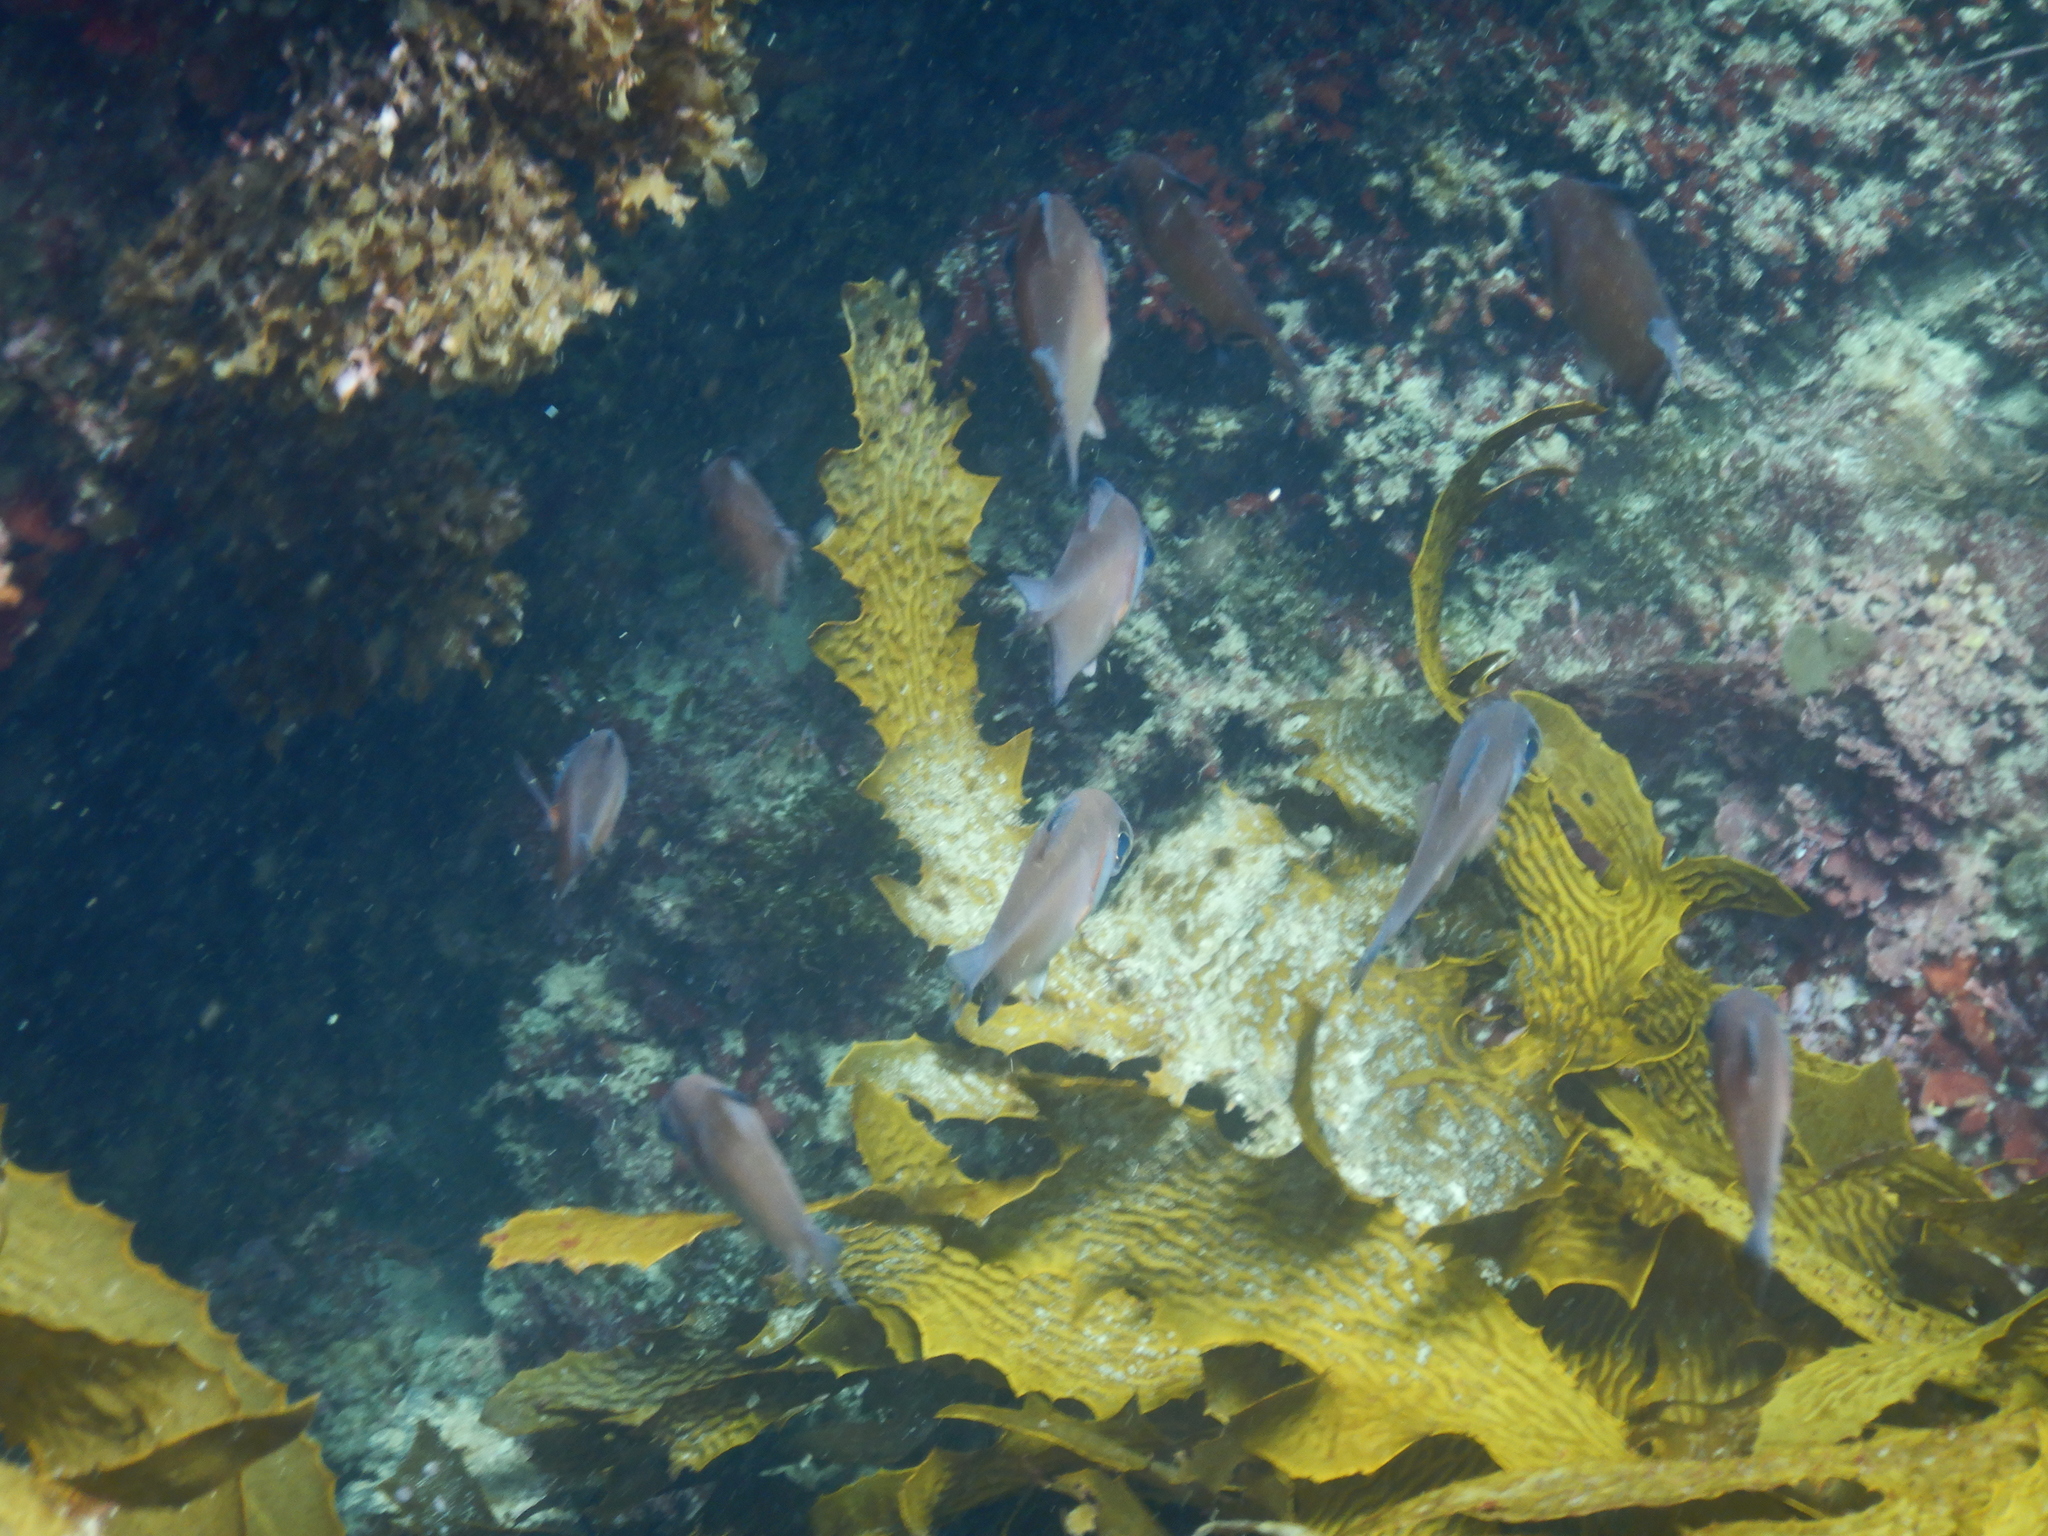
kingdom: Animalia
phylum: Chordata
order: Perciformes
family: Pempheridae
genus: Pempheris
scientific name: Pempheris klunzingeri
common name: Klunzinger's bullseye
